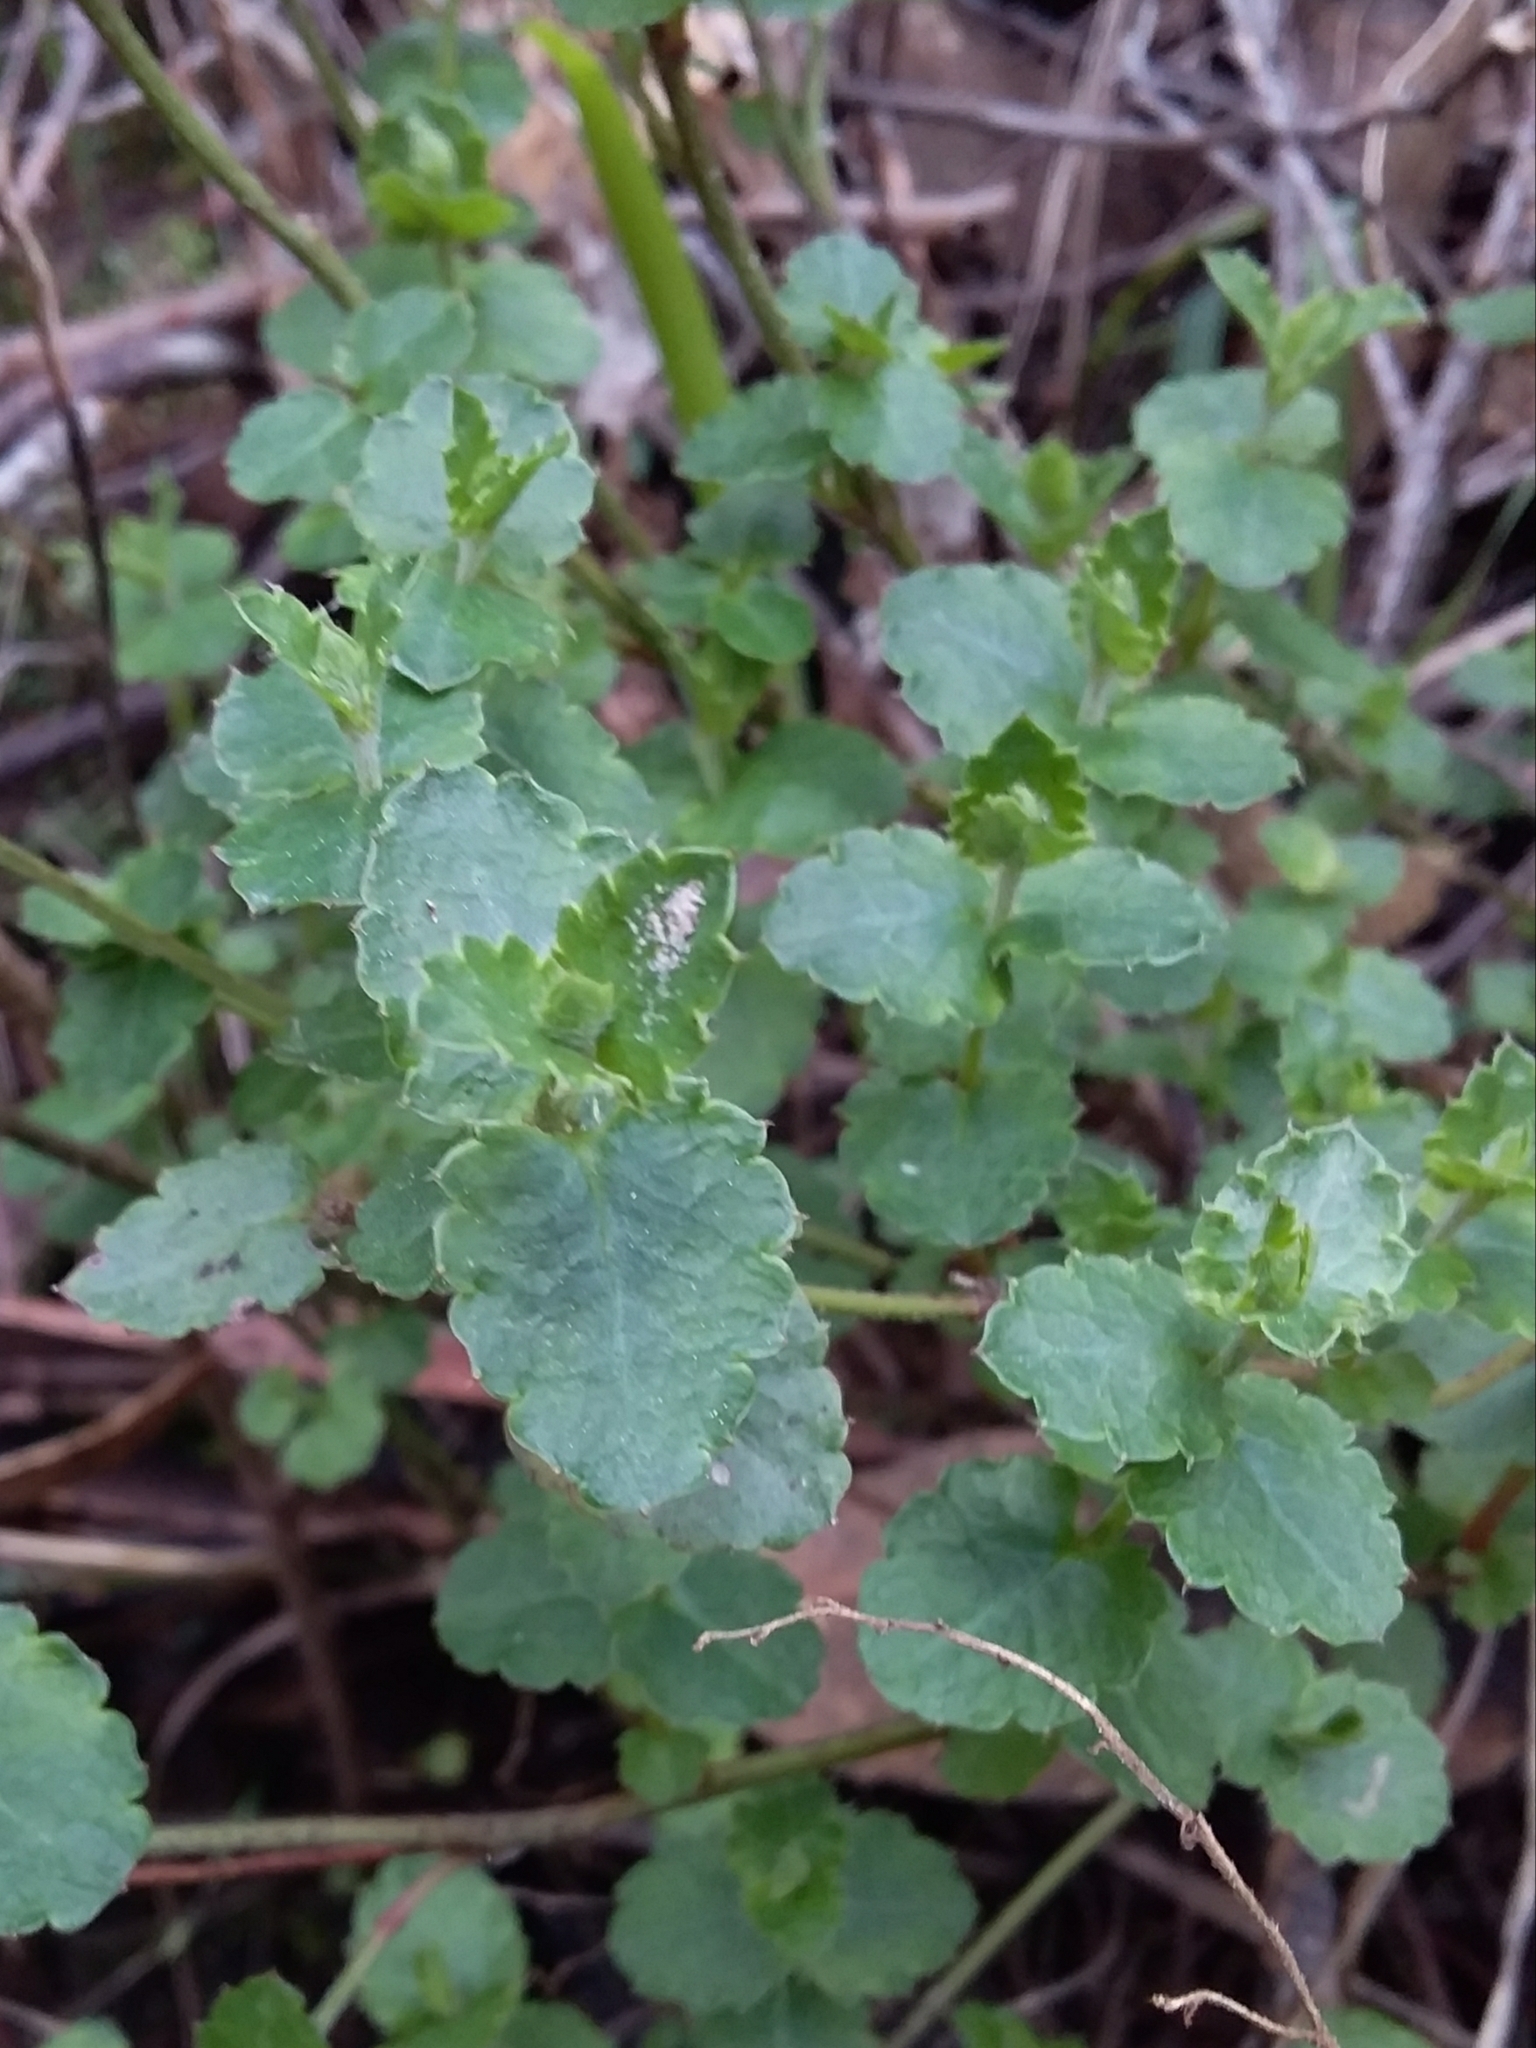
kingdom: Plantae
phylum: Tracheophyta
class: Magnoliopsida
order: Saxifragales
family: Haloragaceae
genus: Gonocarpus
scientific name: Gonocarpus mezianus
